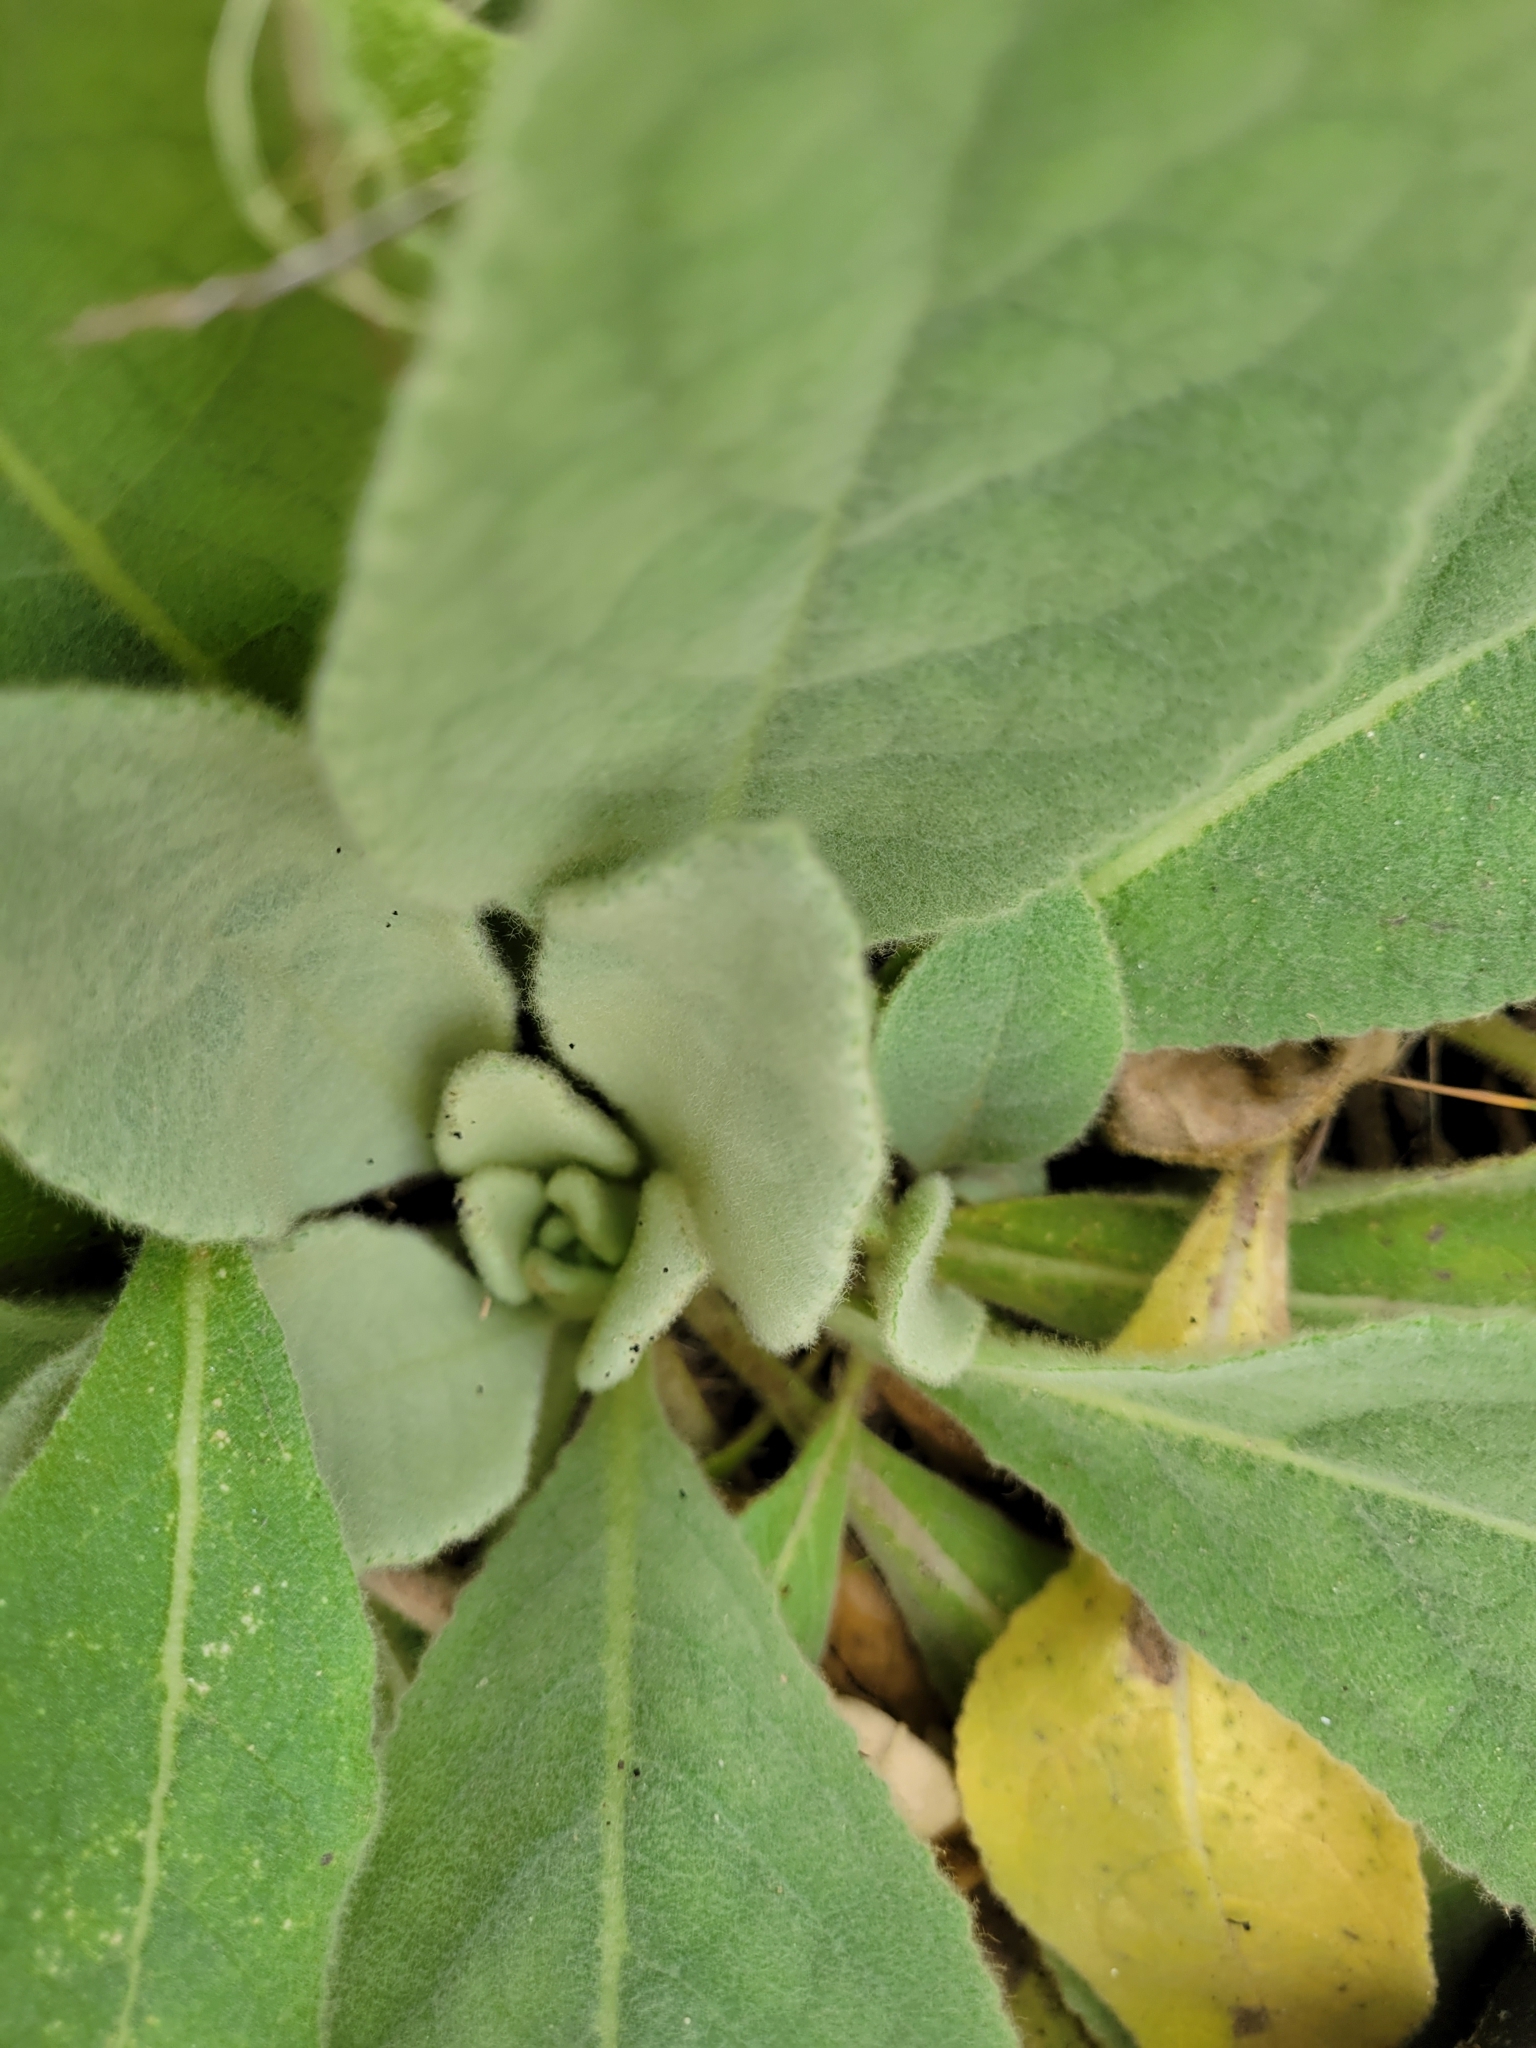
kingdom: Plantae
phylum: Tracheophyta
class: Magnoliopsida
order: Lamiales
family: Scrophulariaceae
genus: Verbascum
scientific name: Verbascum thapsus
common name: Common mullein
